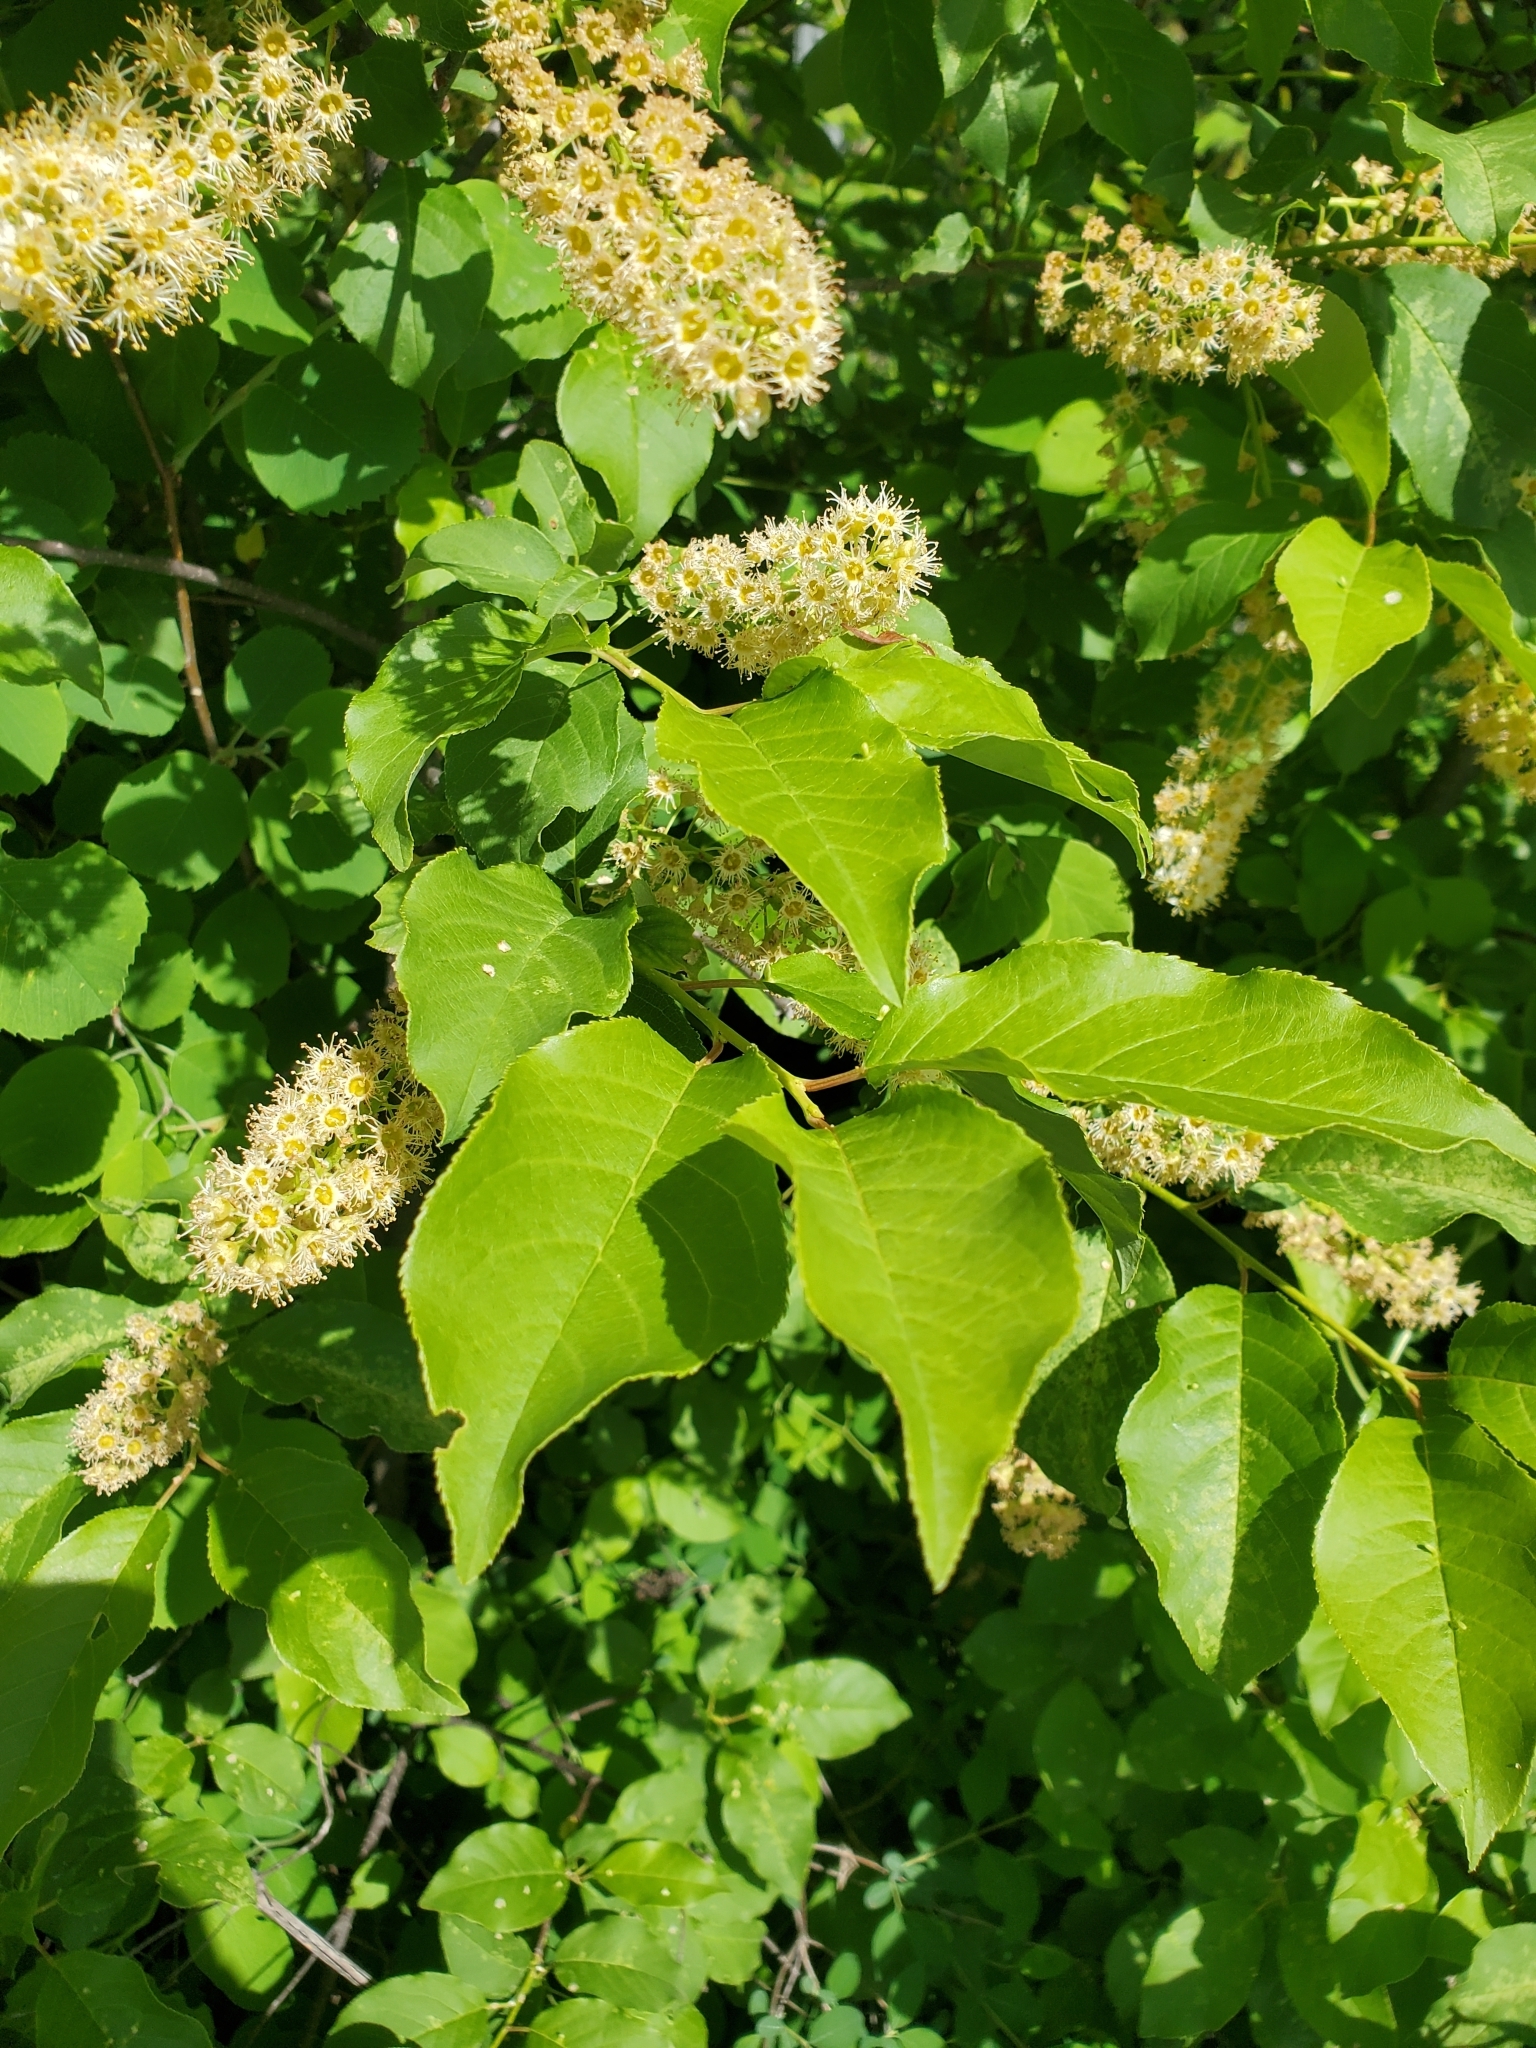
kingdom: Plantae
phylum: Tracheophyta
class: Magnoliopsida
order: Rosales
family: Rosaceae
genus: Prunus
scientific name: Prunus virginiana
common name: Chokecherry
